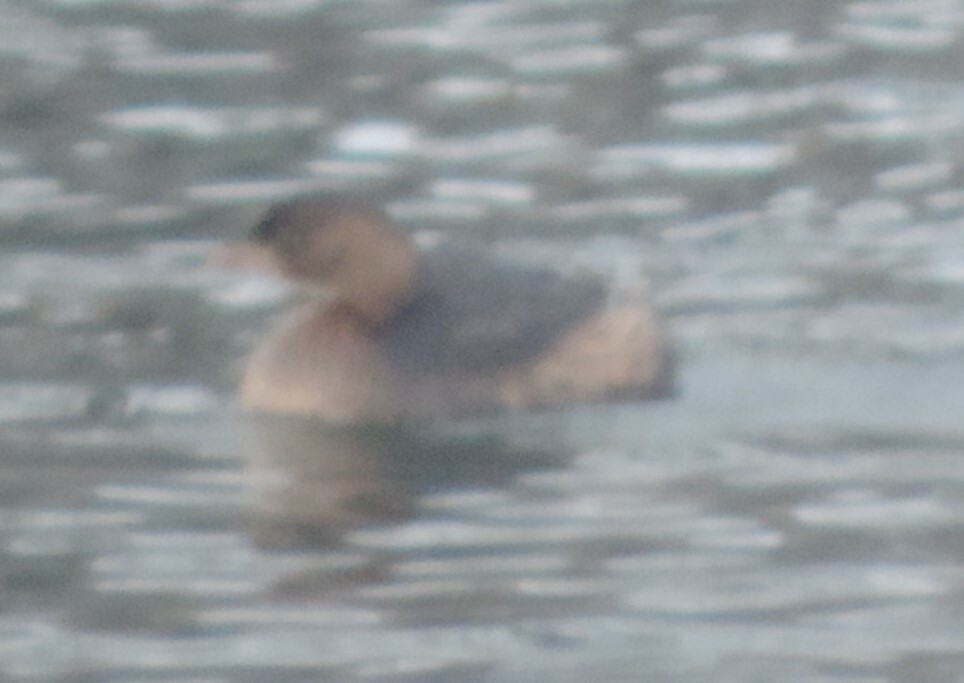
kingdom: Animalia
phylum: Chordata
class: Aves
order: Podicipediformes
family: Podicipedidae
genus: Podilymbus
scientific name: Podilymbus podiceps
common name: Pied-billed grebe
